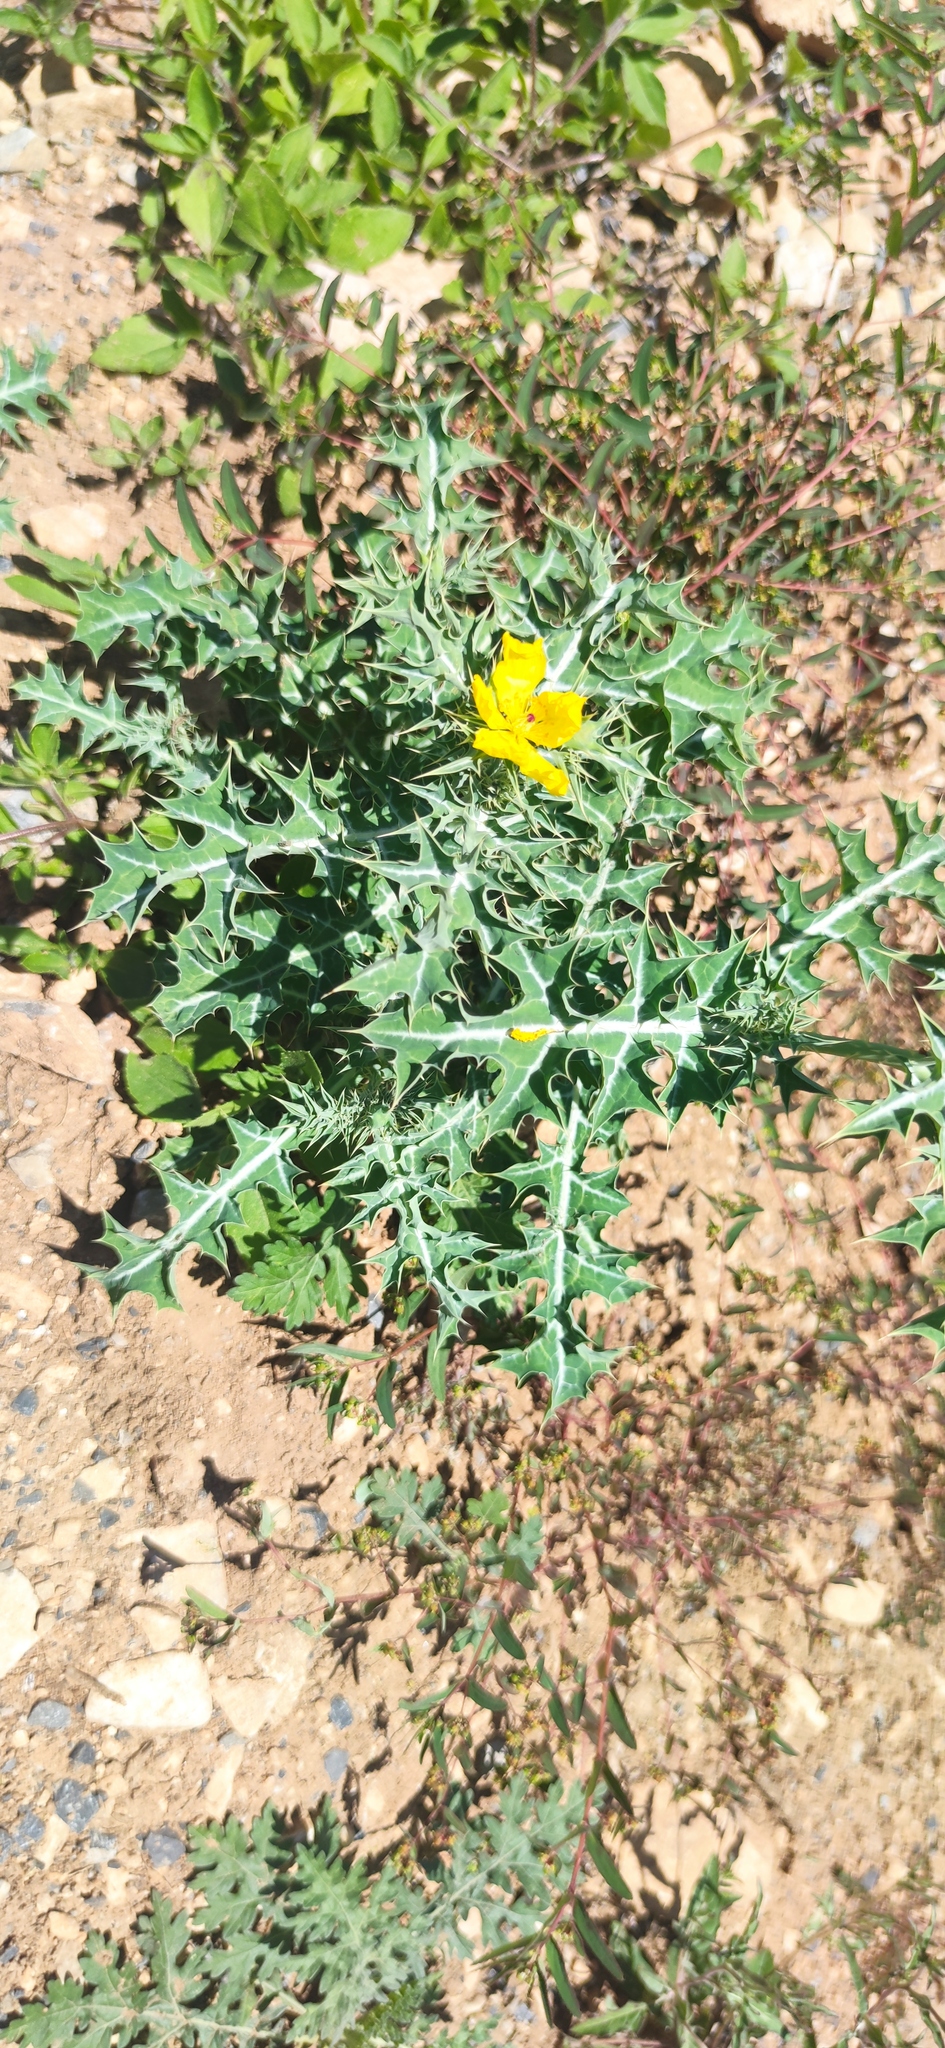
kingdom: Plantae
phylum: Tracheophyta
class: Magnoliopsida
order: Ranunculales
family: Papaveraceae
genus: Argemone
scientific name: Argemone mexicana
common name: Mexican poppy
